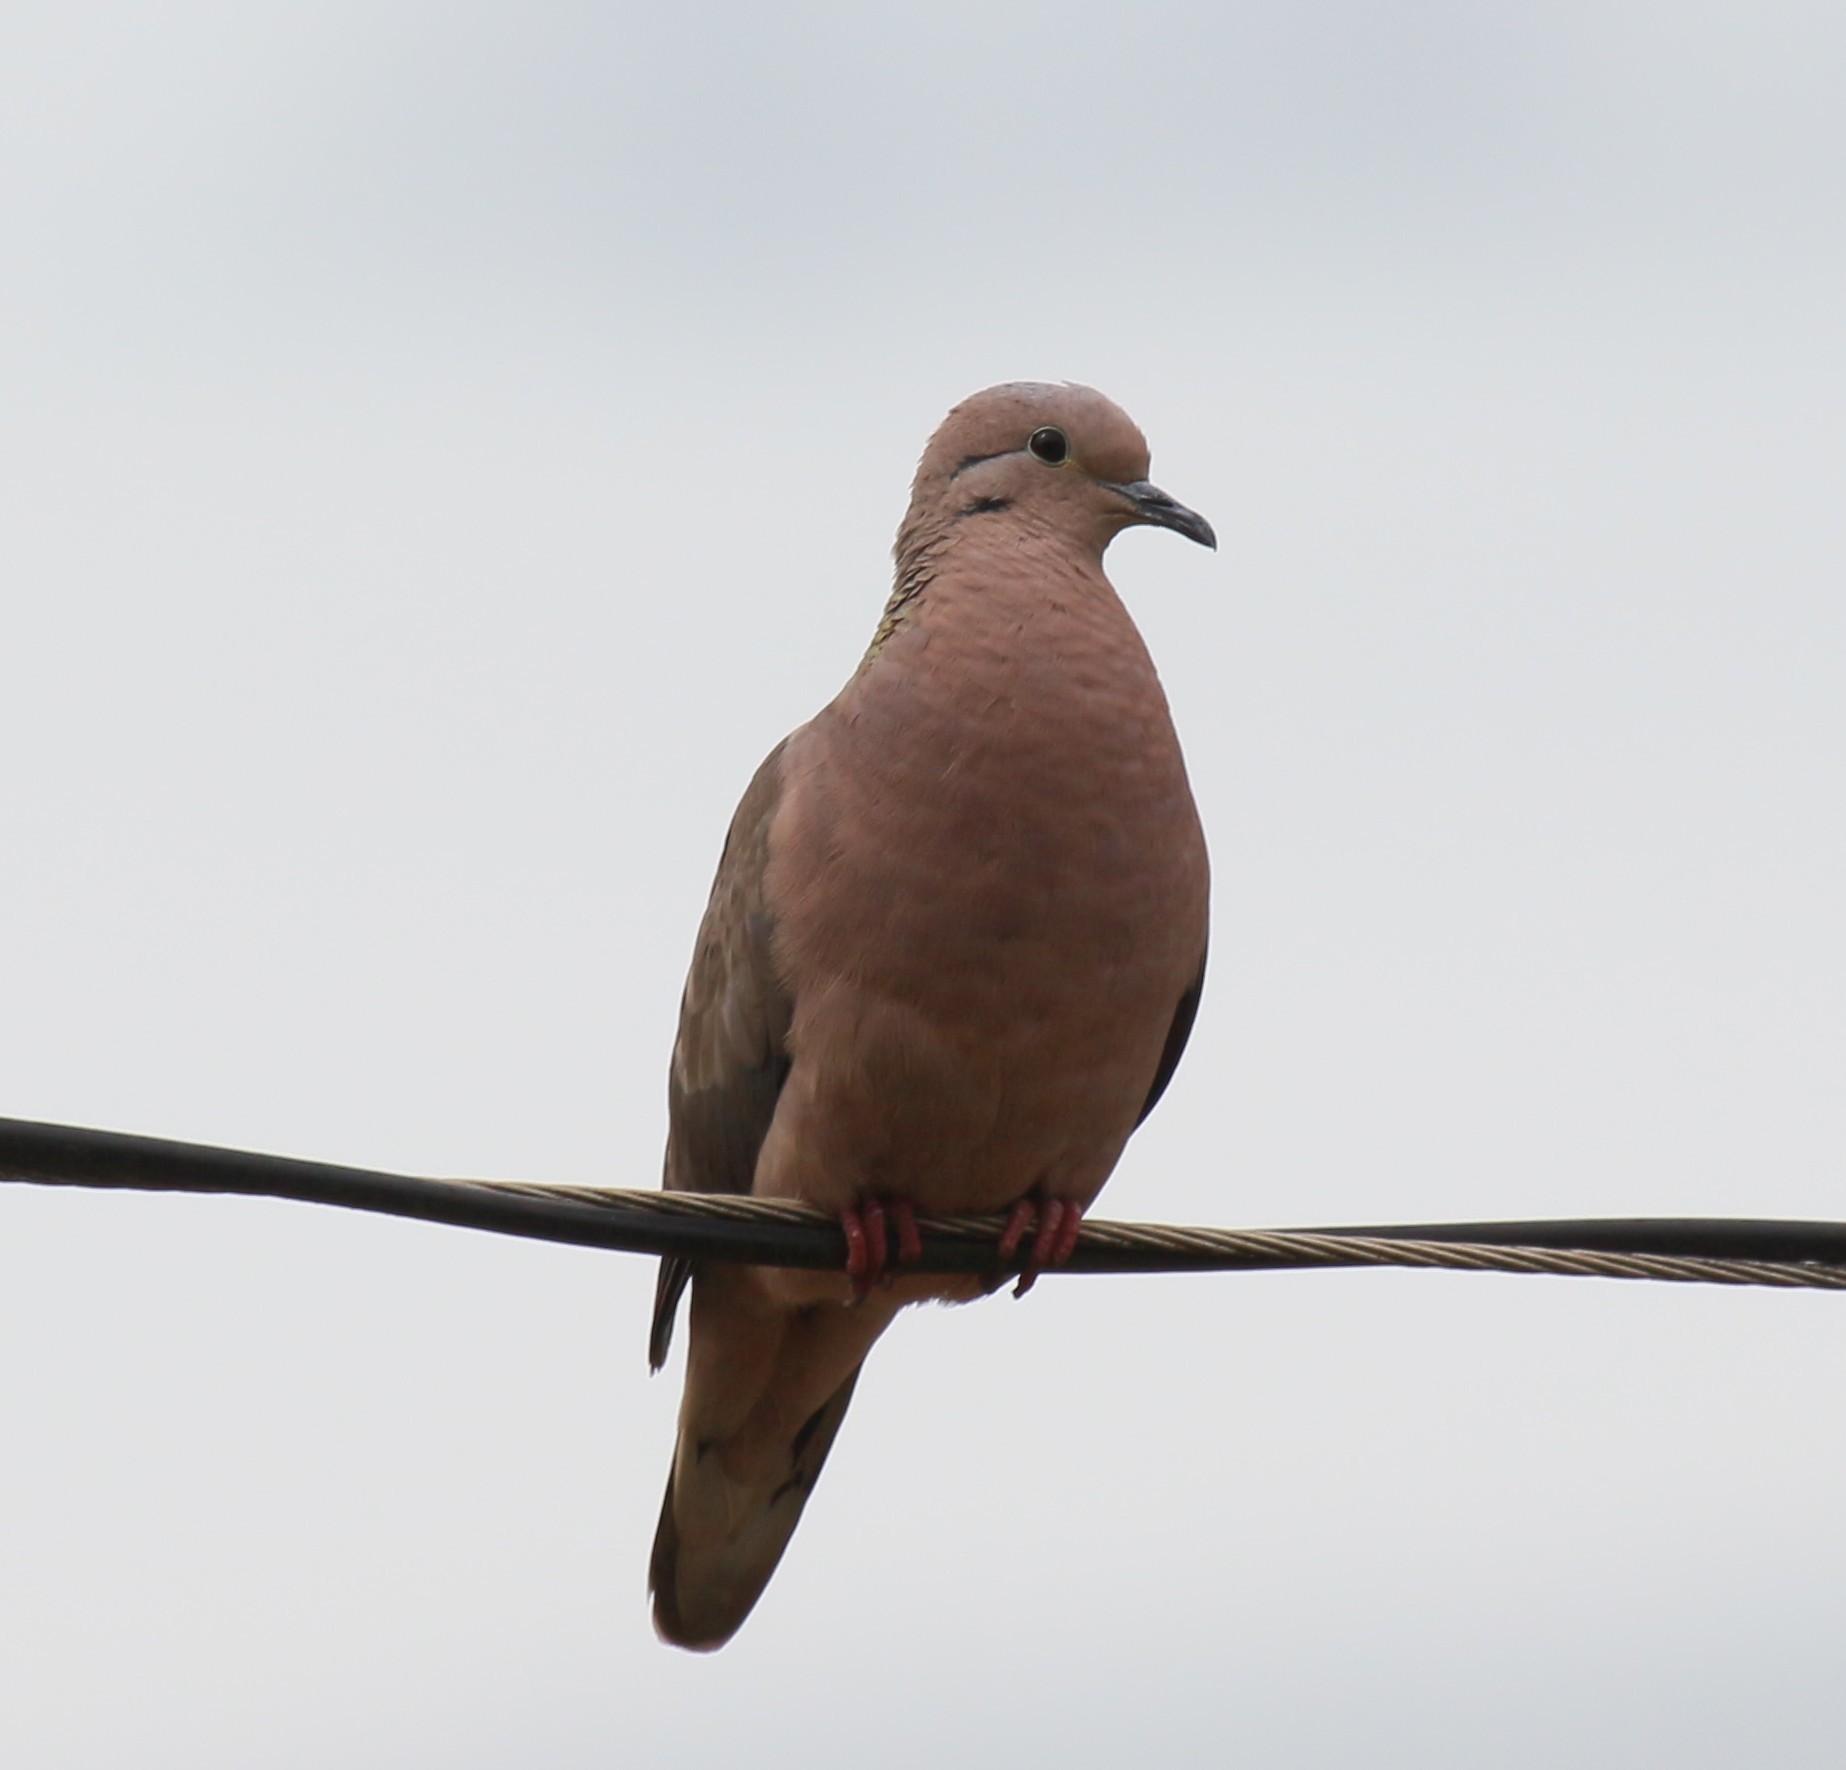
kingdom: Animalia
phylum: Chordata
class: Aves
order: Columbiformes
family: Columbidae
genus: Zenaida
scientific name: Zenaida auriculata
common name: Eared dove
